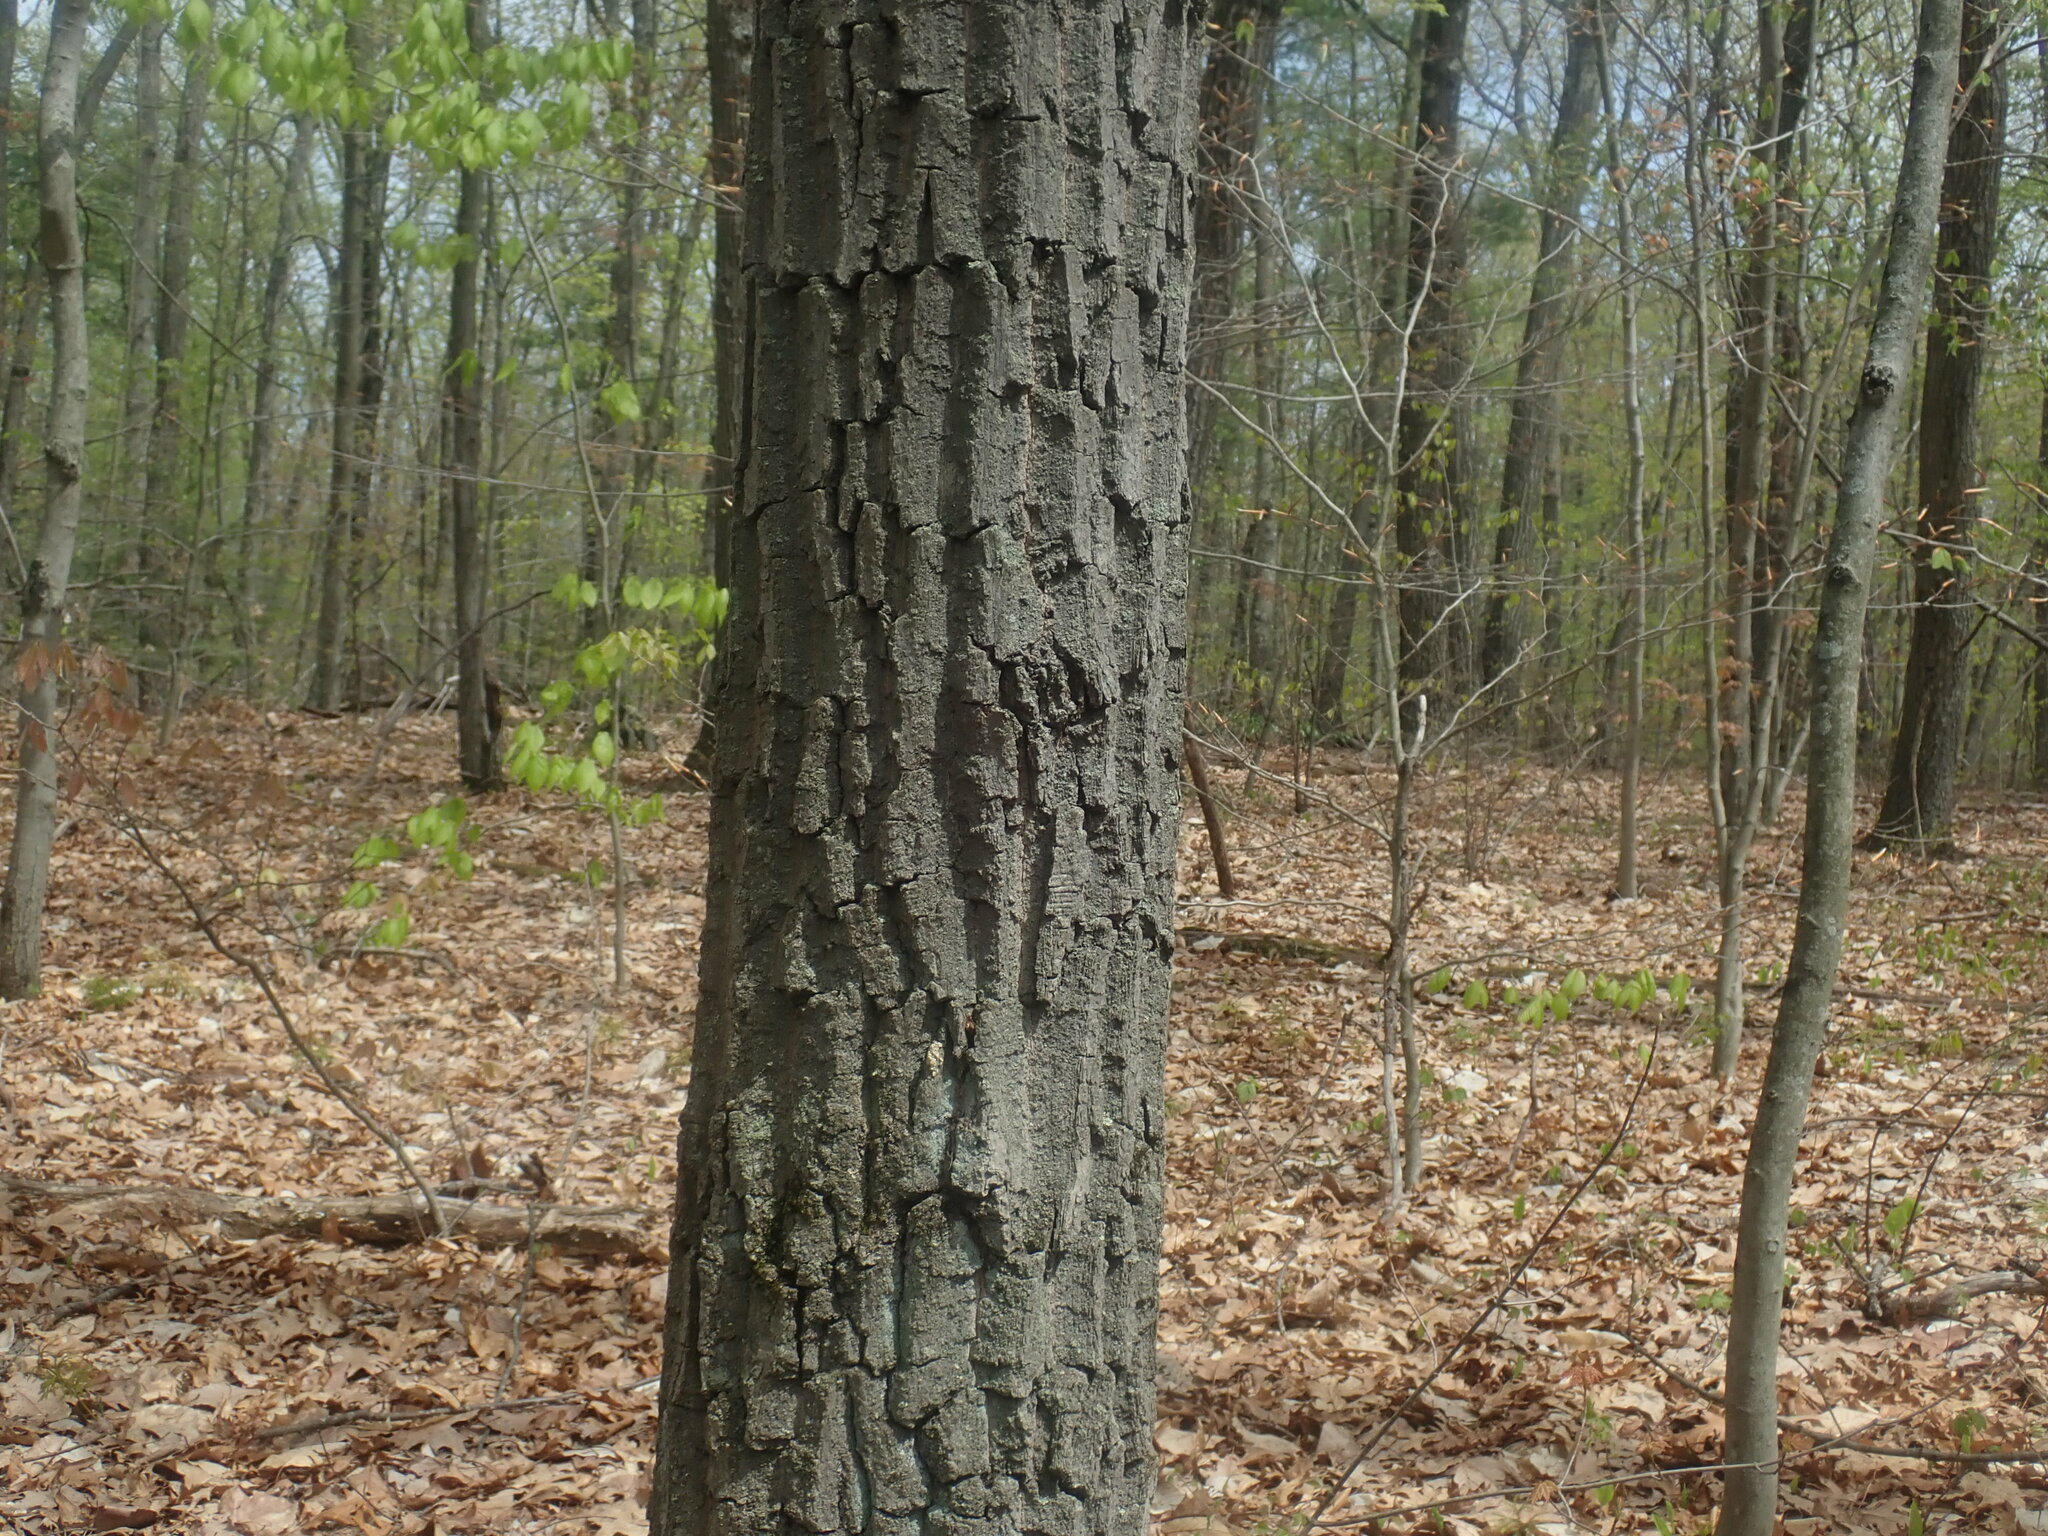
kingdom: Plantae
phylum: Tracheophyta
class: Magnoliopsida
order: Fagales
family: Fagaceae
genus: Quercus
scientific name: Quercus montana
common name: Chestnut oak
